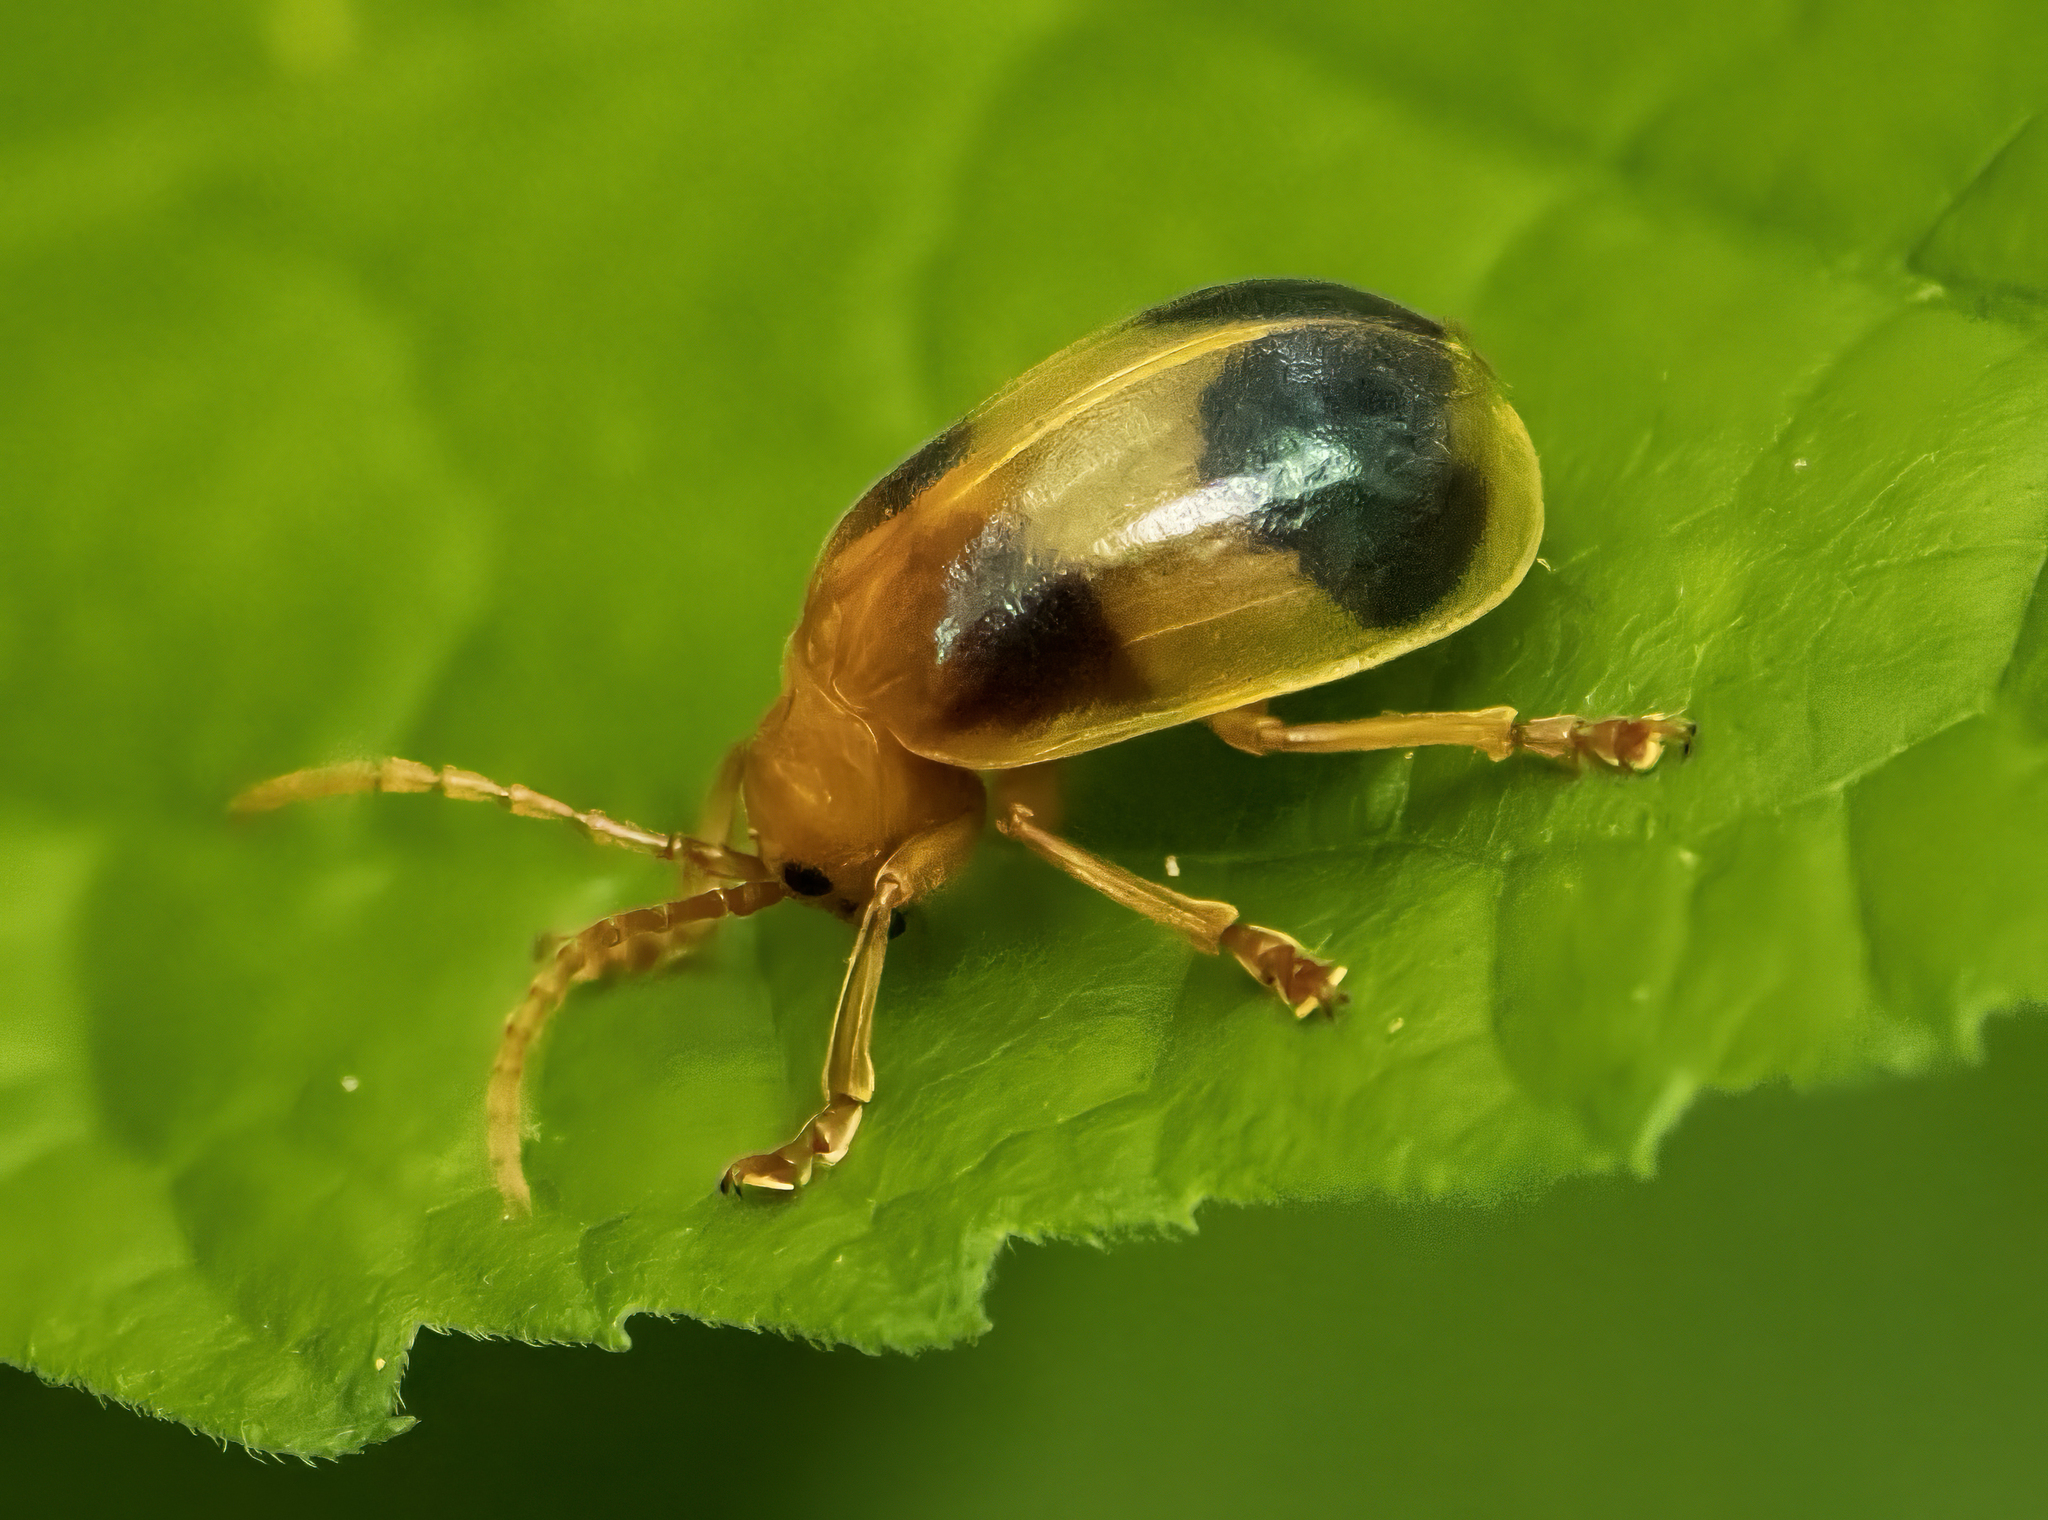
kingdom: Animalia
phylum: Arthropoda
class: Insecta
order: Coleoptera
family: Chrysomelidae
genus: Monocesta
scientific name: Monocesta coryli
